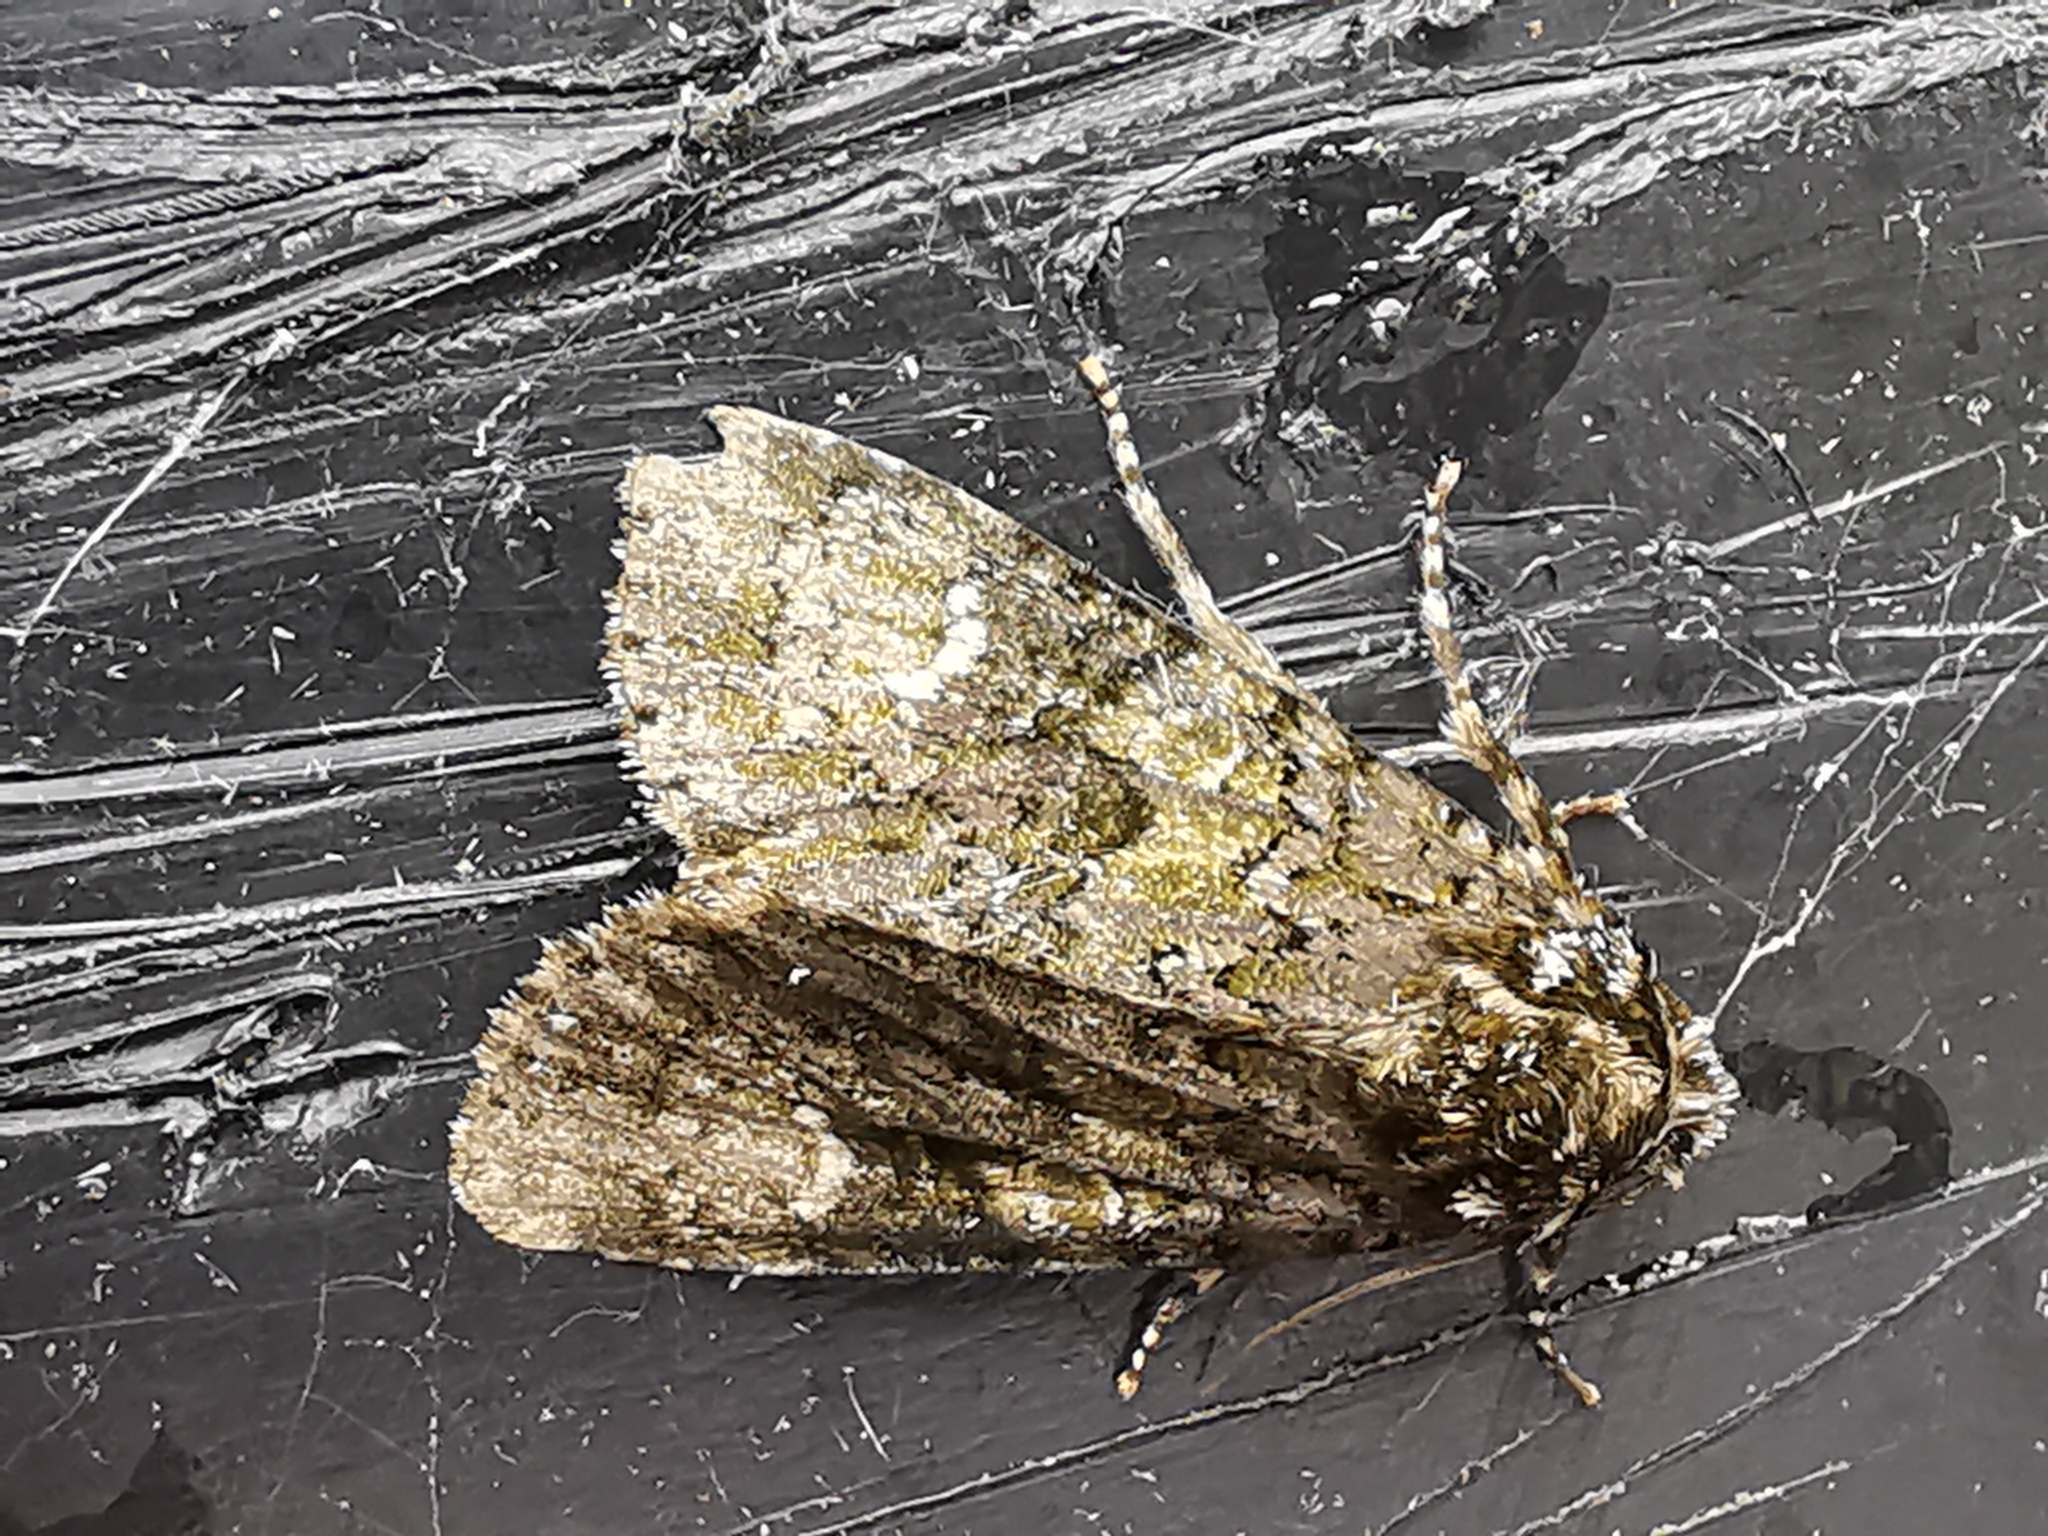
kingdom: Animalia
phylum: Arthropoda
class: Insecta
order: Lepidoptera
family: Noctuidae
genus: Craniophora
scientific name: Craniophora ligustri
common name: Coronet
